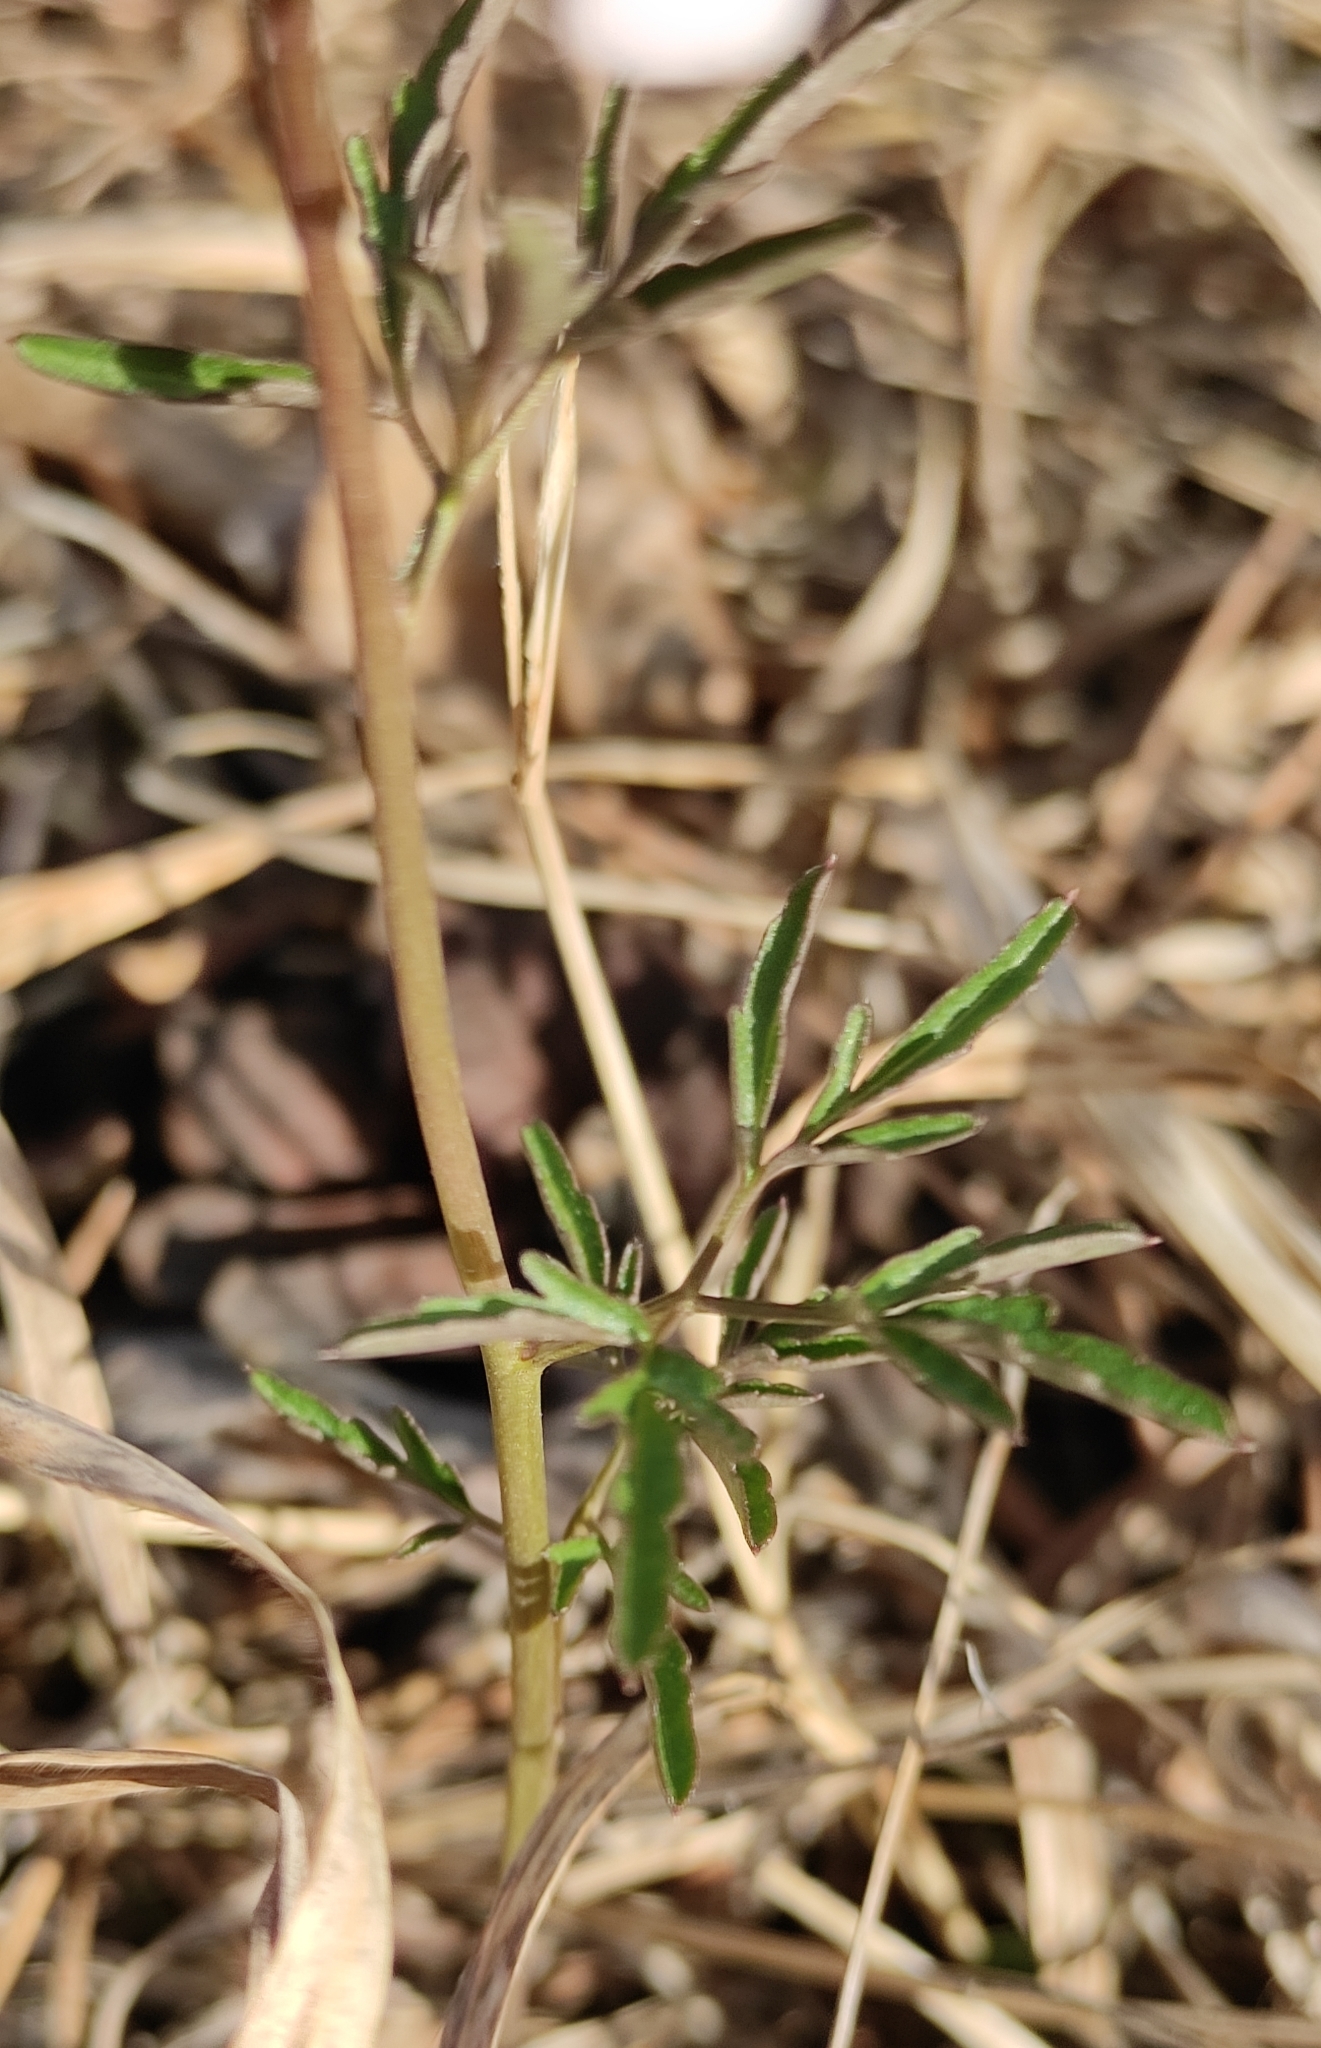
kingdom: Plantae
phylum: Tracheophyta
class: Magnoliopsida
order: Brassicales
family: Brassicaceae
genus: Cardamine
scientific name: Cardamine trifida
